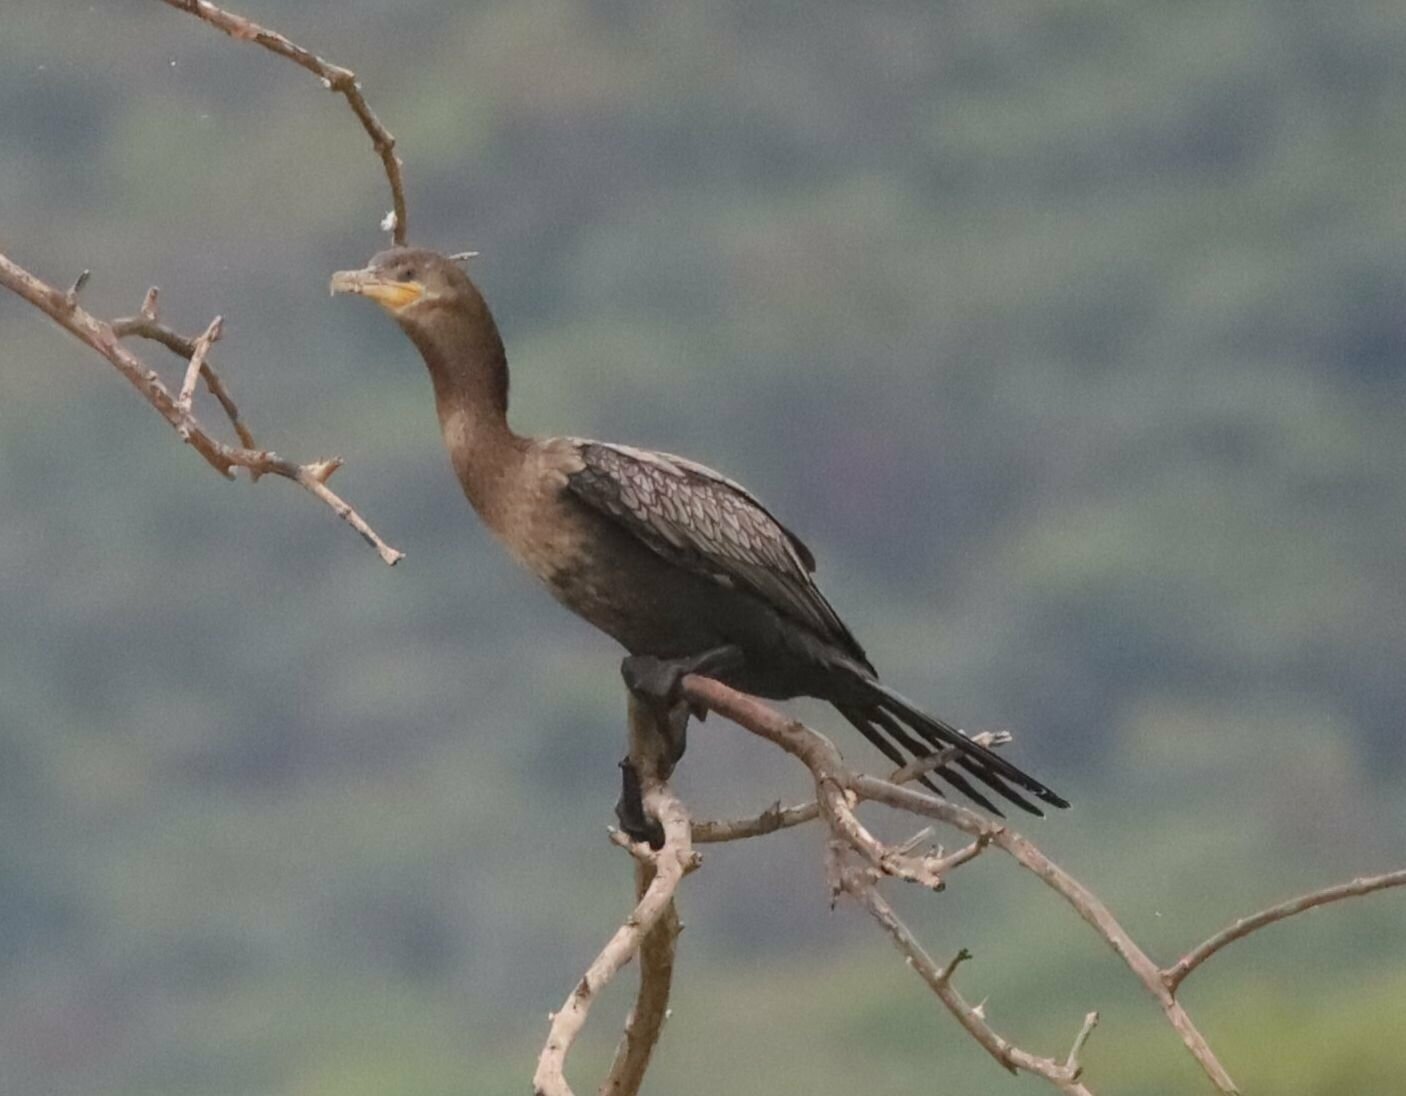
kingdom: Animalia
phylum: Chordata
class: Aves
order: Suliformes
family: Phalacrocoracidae
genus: Phalacrocorax
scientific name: Phalacrocorax brasilianus
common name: Neotropic cormorant
